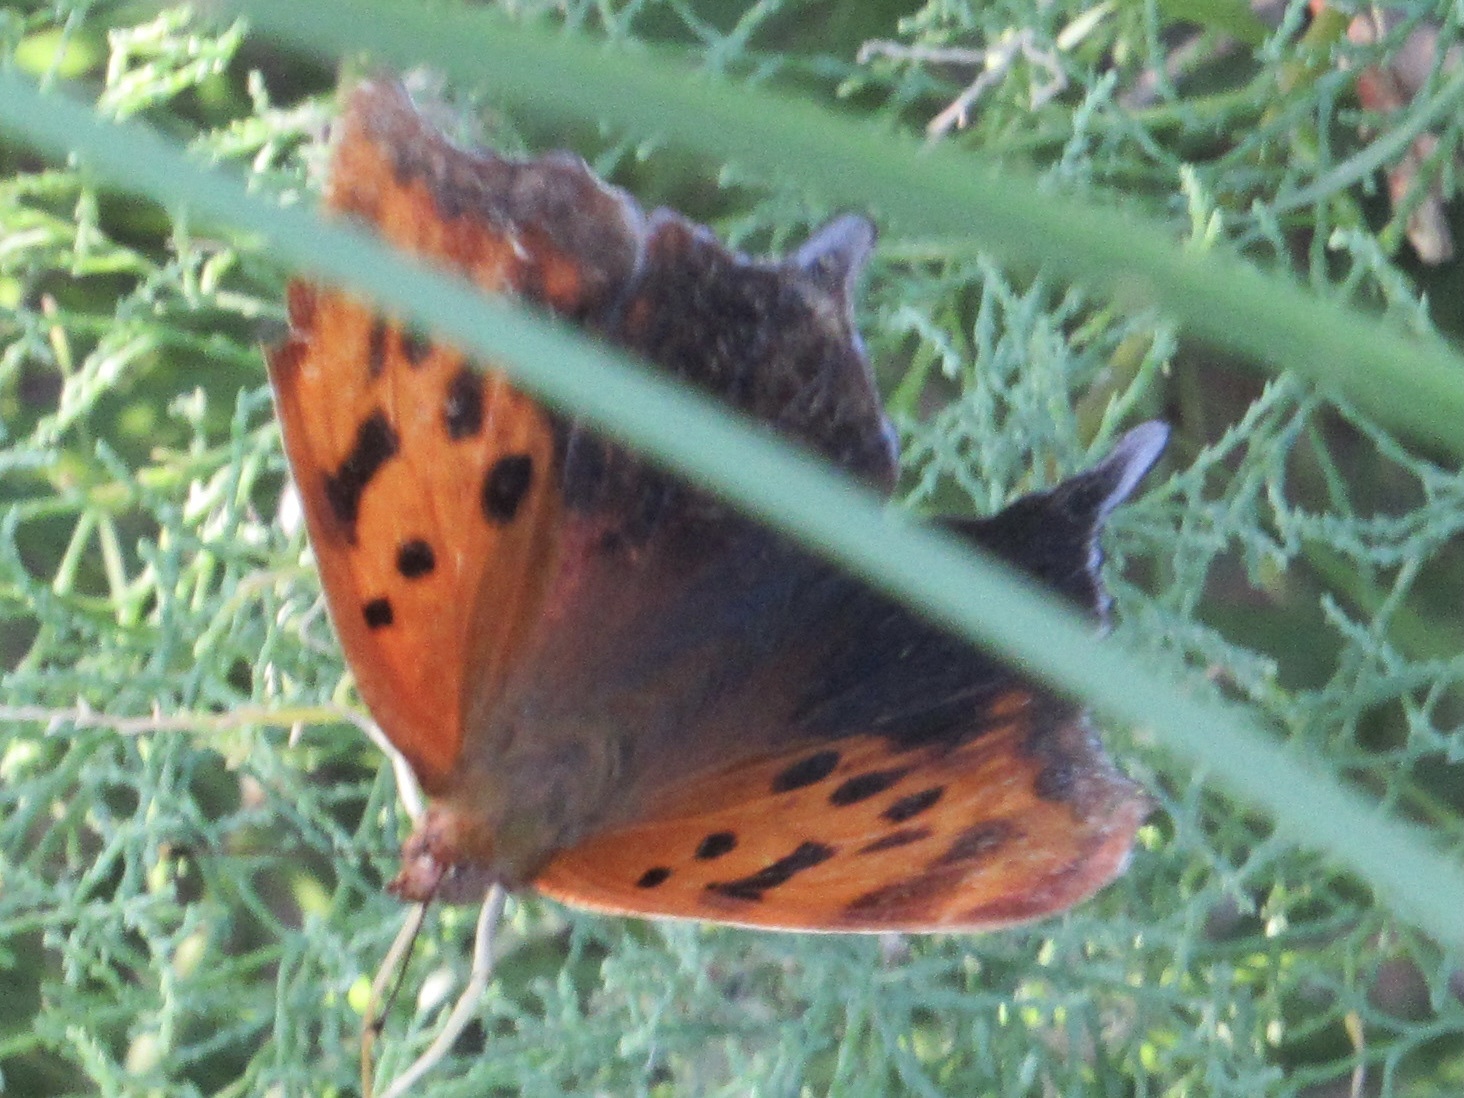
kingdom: Animalia
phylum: Arthropoda
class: Insecta
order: Lepidoptera
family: Nymphalidae
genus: Polygonia
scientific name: Polygonia interrogationis
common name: Question mark
